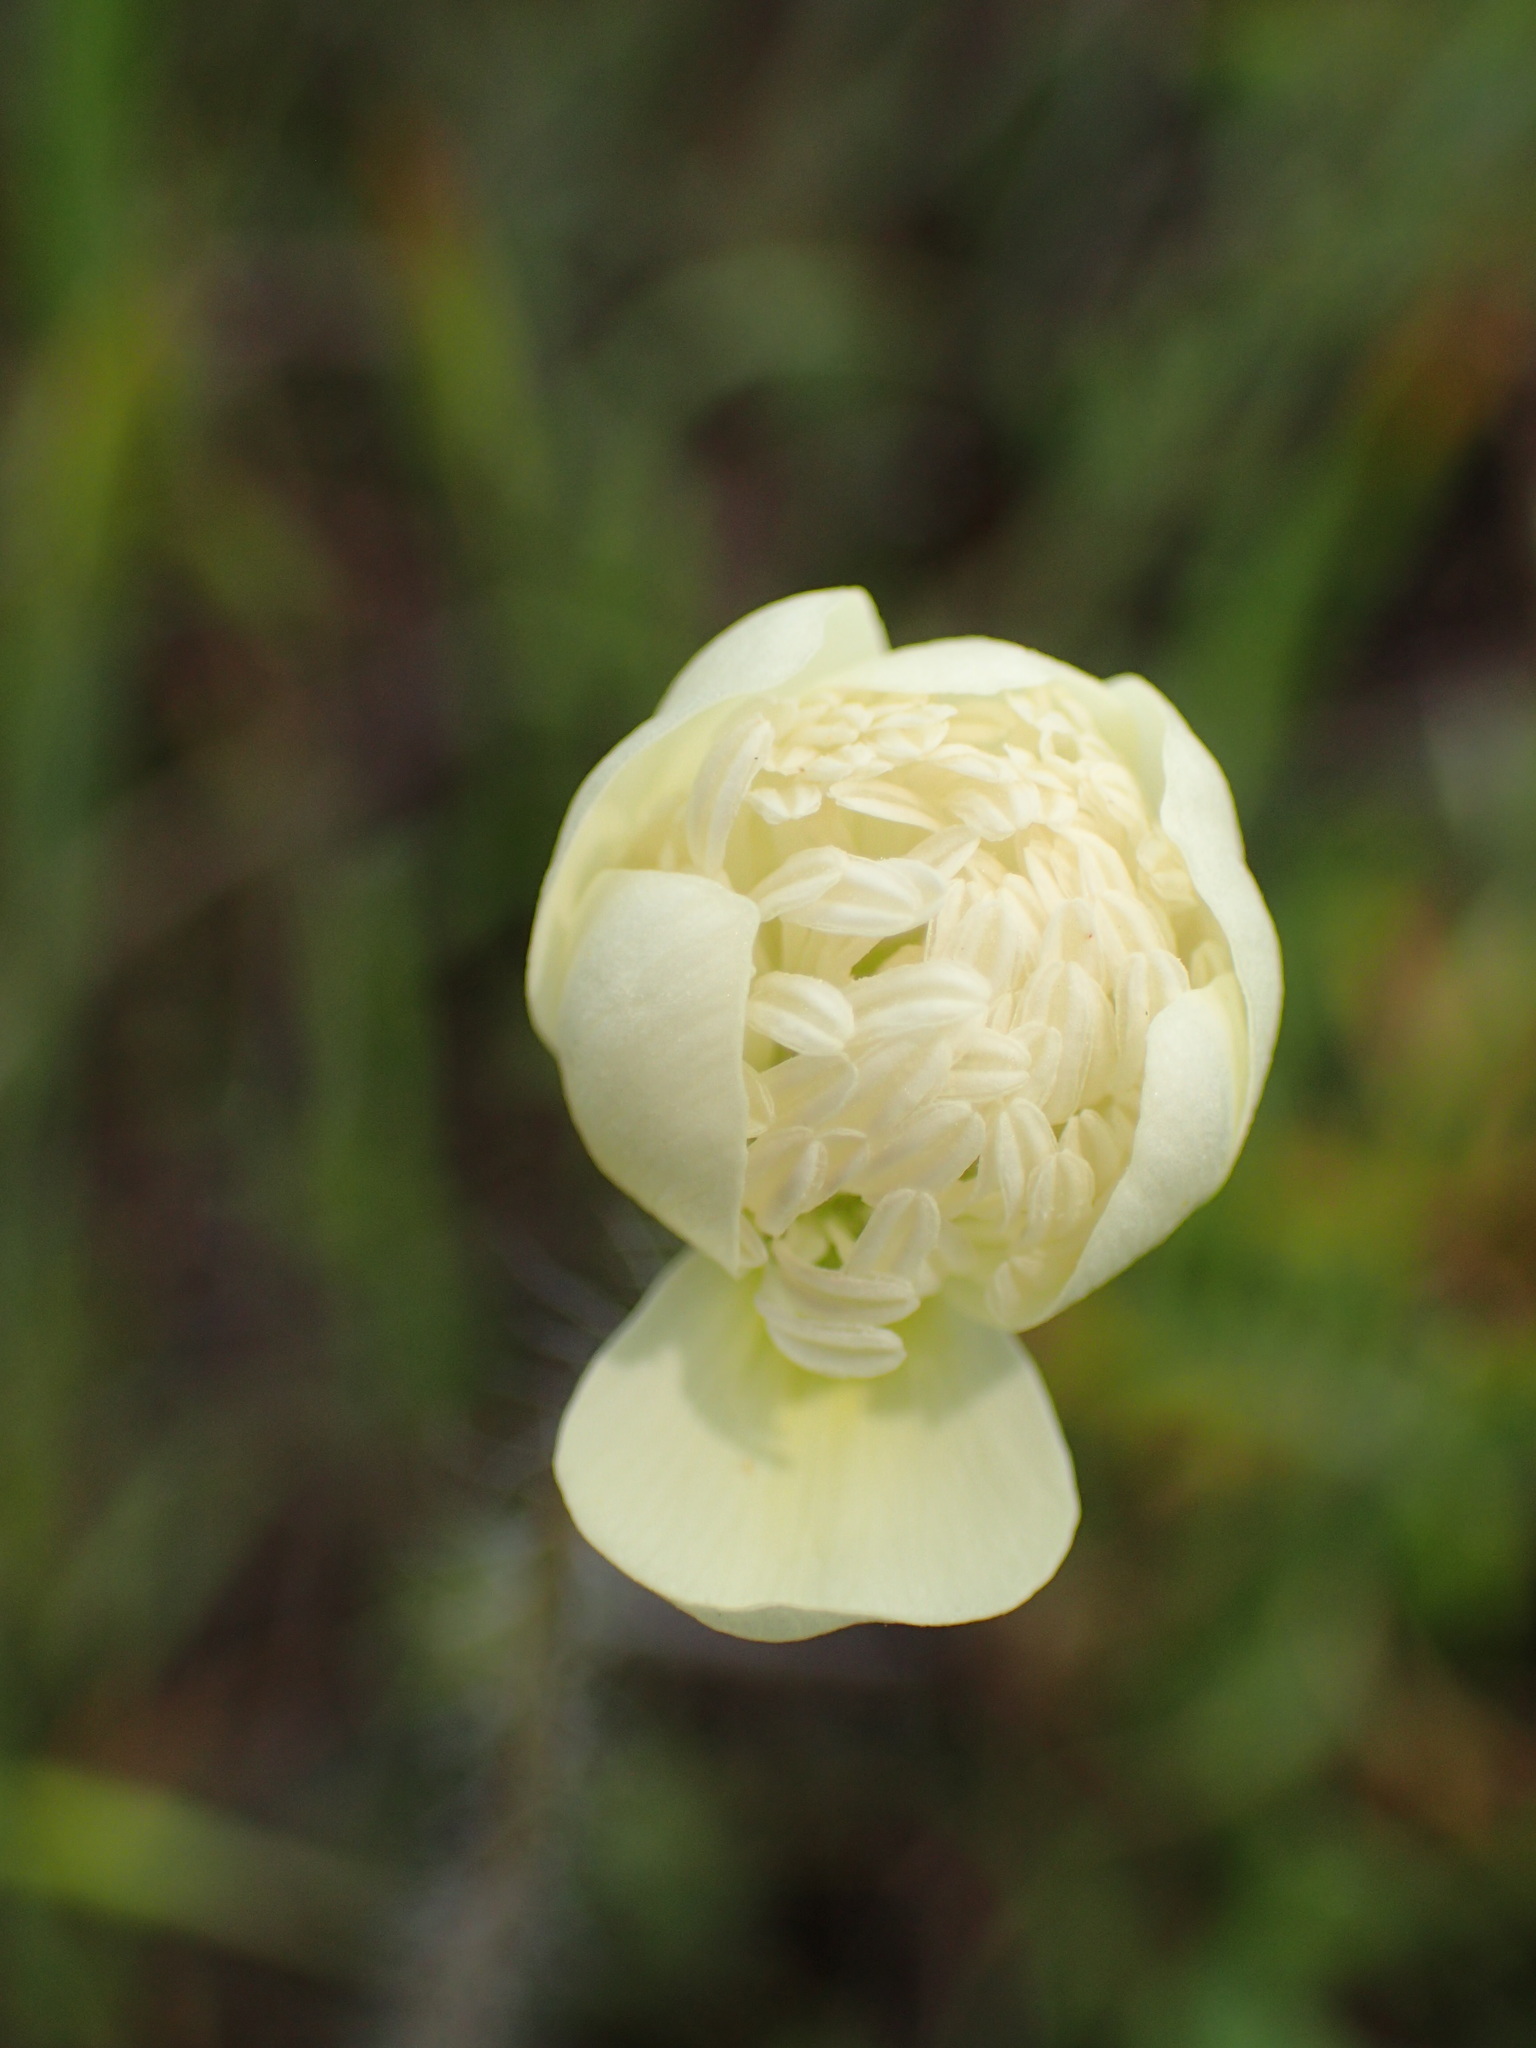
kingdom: Plantae
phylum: Tracheophyta
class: Magnoliopsida
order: Ranunculales
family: Papaveraceae
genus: Platystemon
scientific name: Platystemon californicus
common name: Cream-cups
